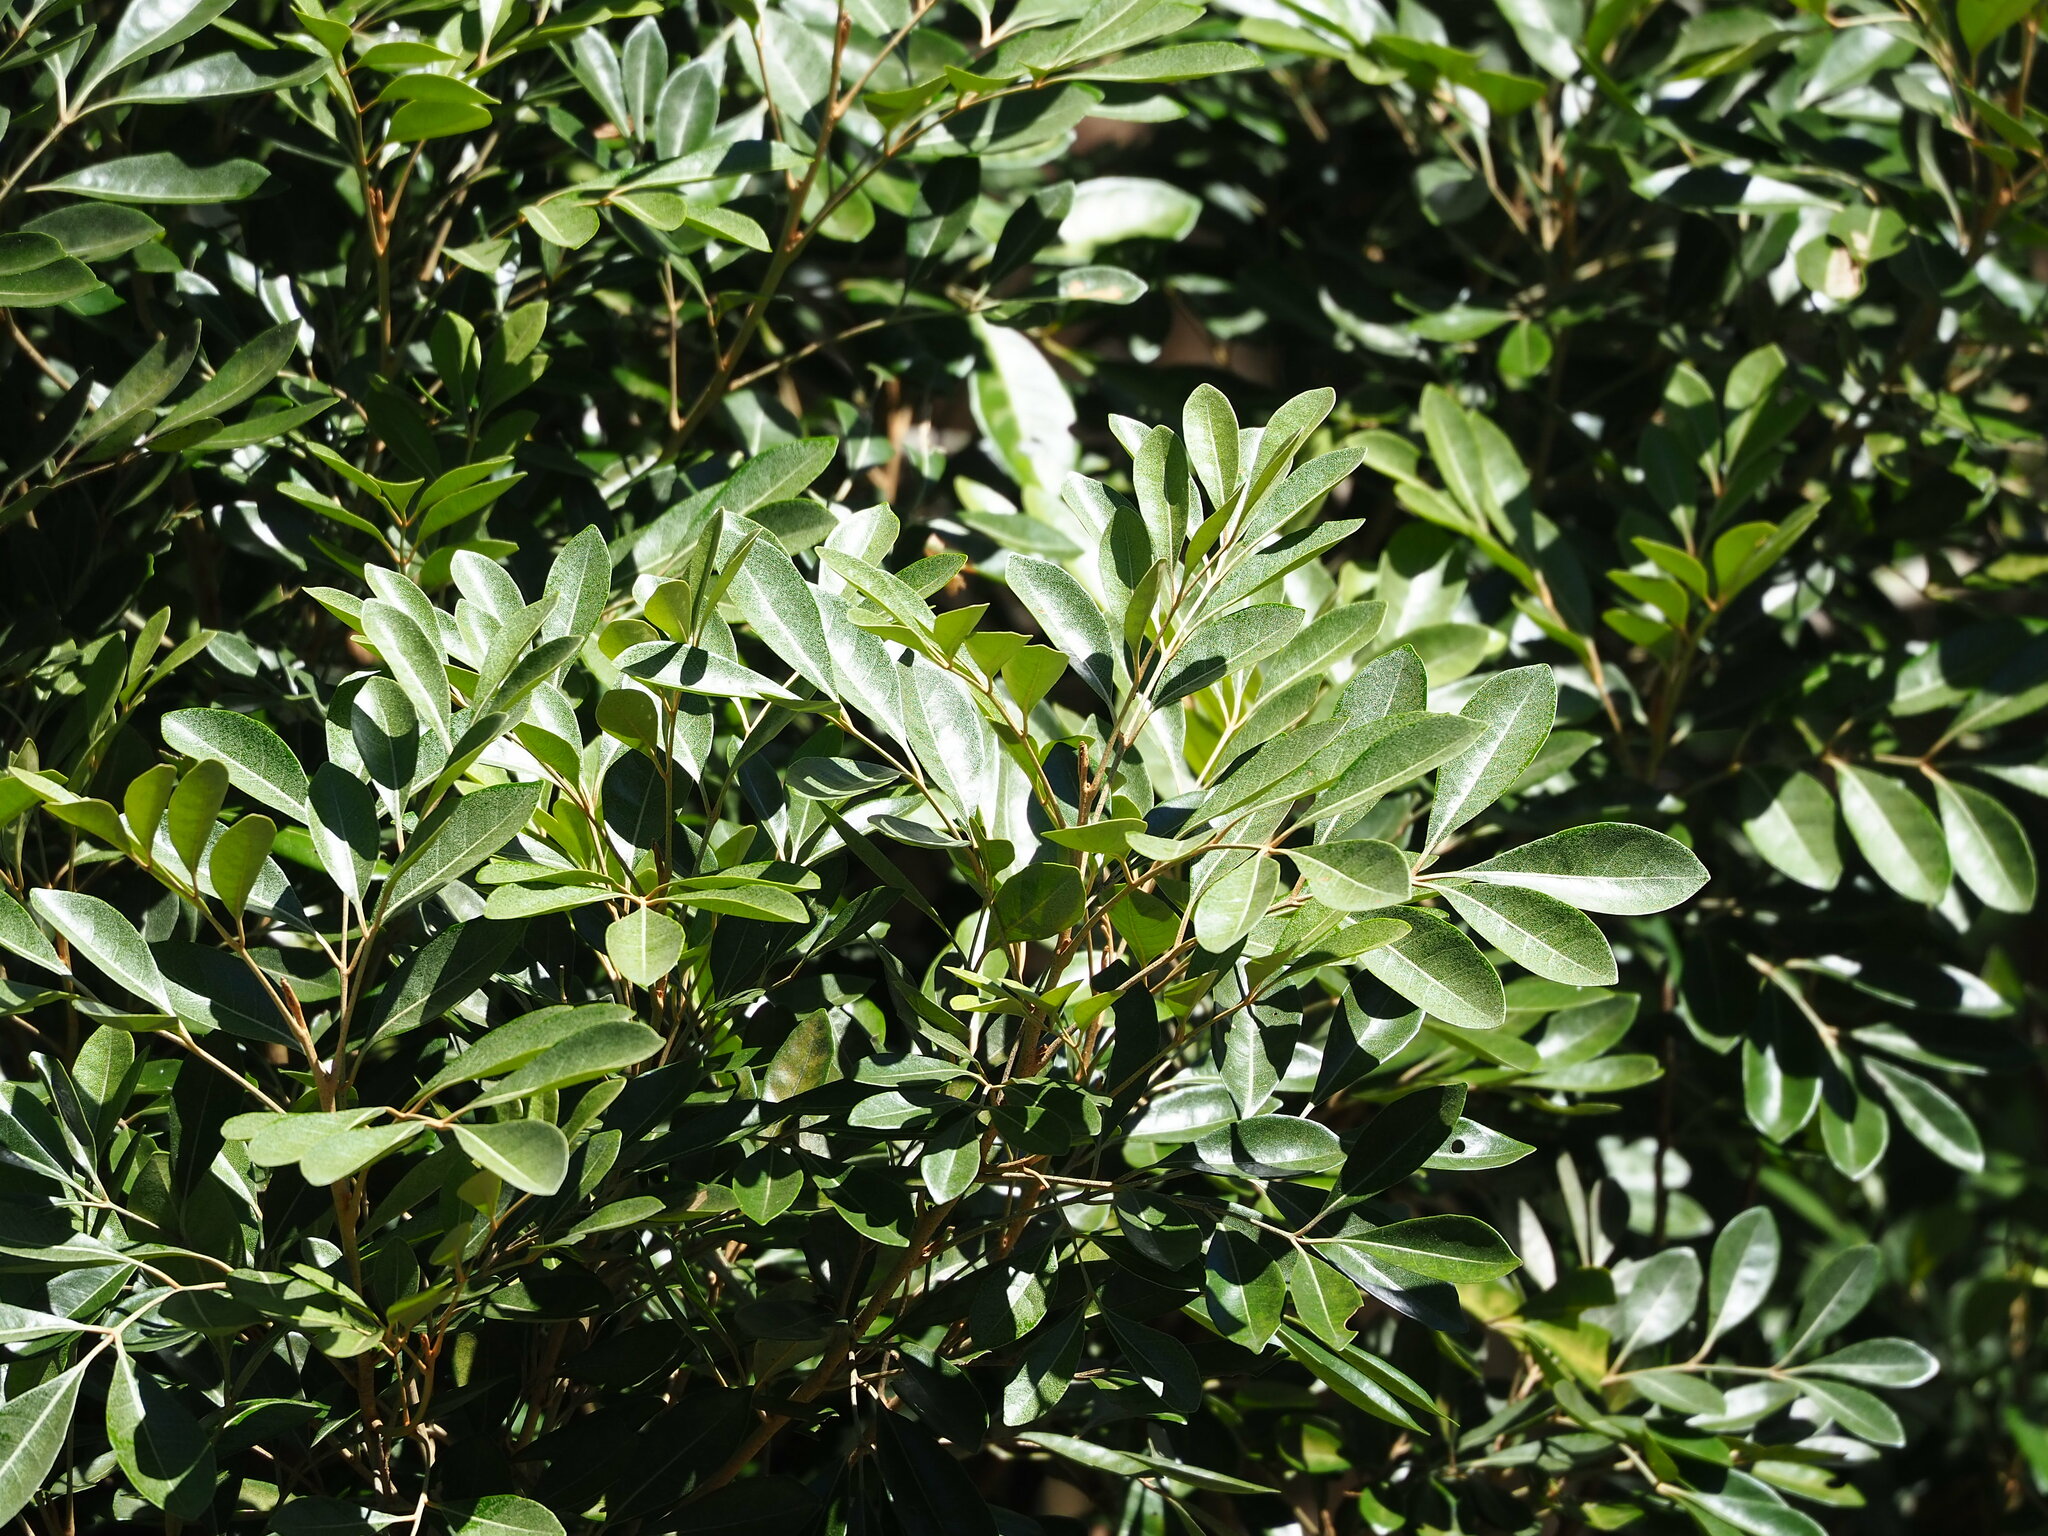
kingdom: Plantae
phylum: Tracheophyta
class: Magnoliopsida
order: Sapindales
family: Meliaceae
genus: Aglaia
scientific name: Aglaia elaeagnoidea
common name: Droopyleaf
